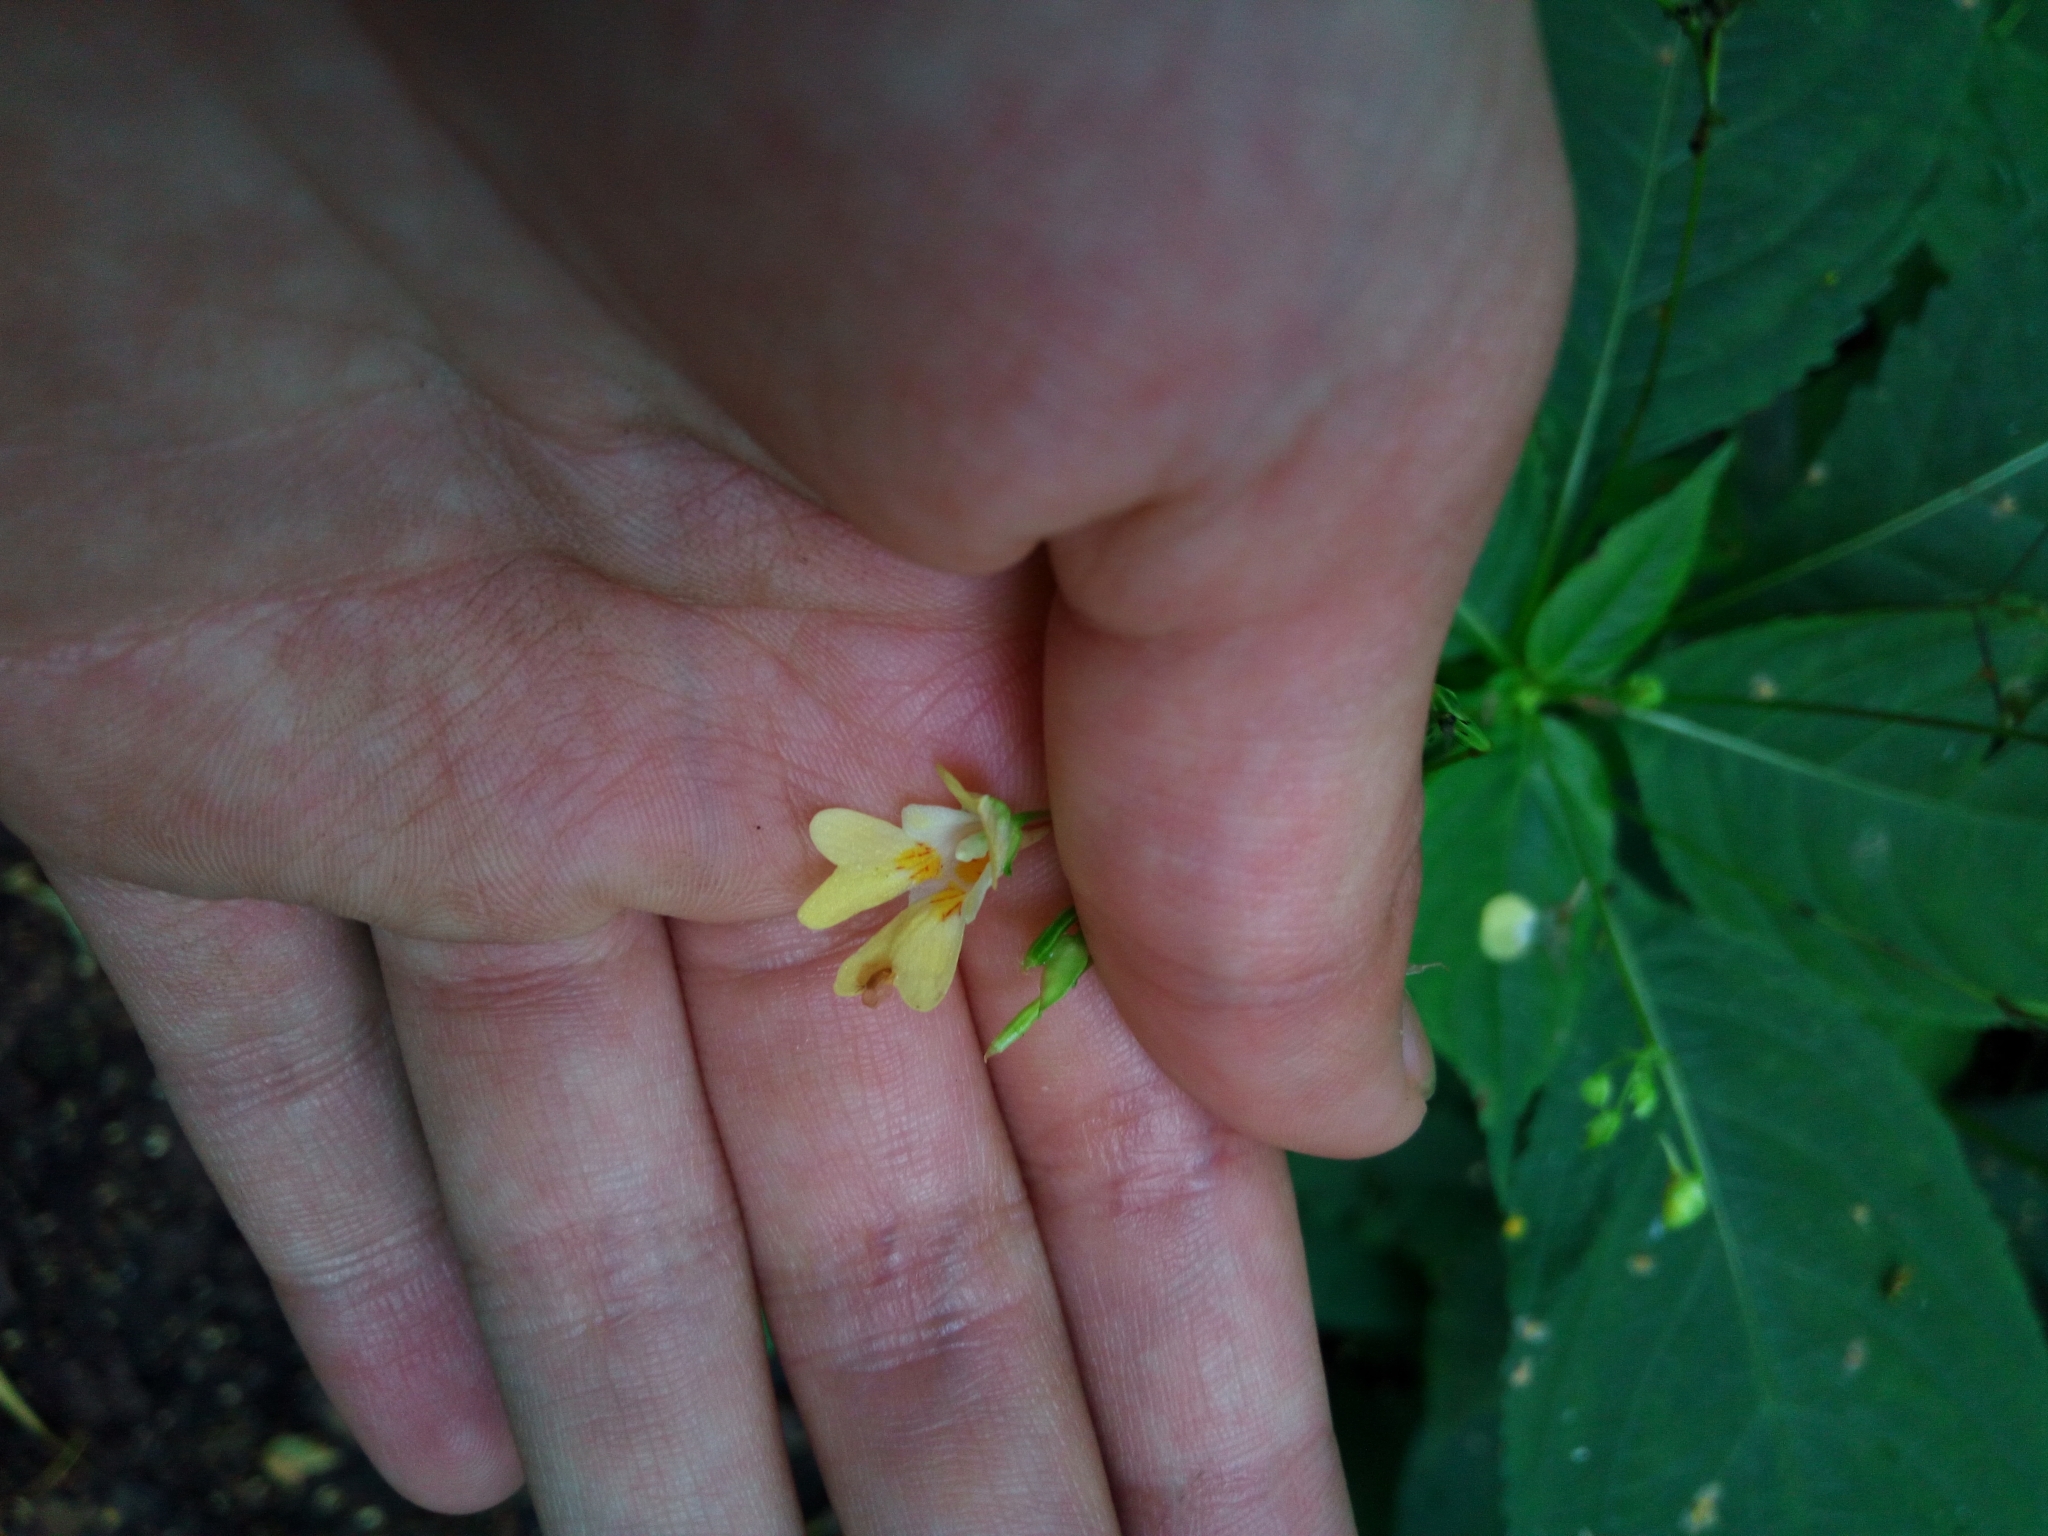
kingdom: Plantae
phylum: Tracheophyta
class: Magnoliopsida
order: Ericales
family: Balsaminaceae
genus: Impatiens
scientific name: Impatiens parviflora
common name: Small balsam
